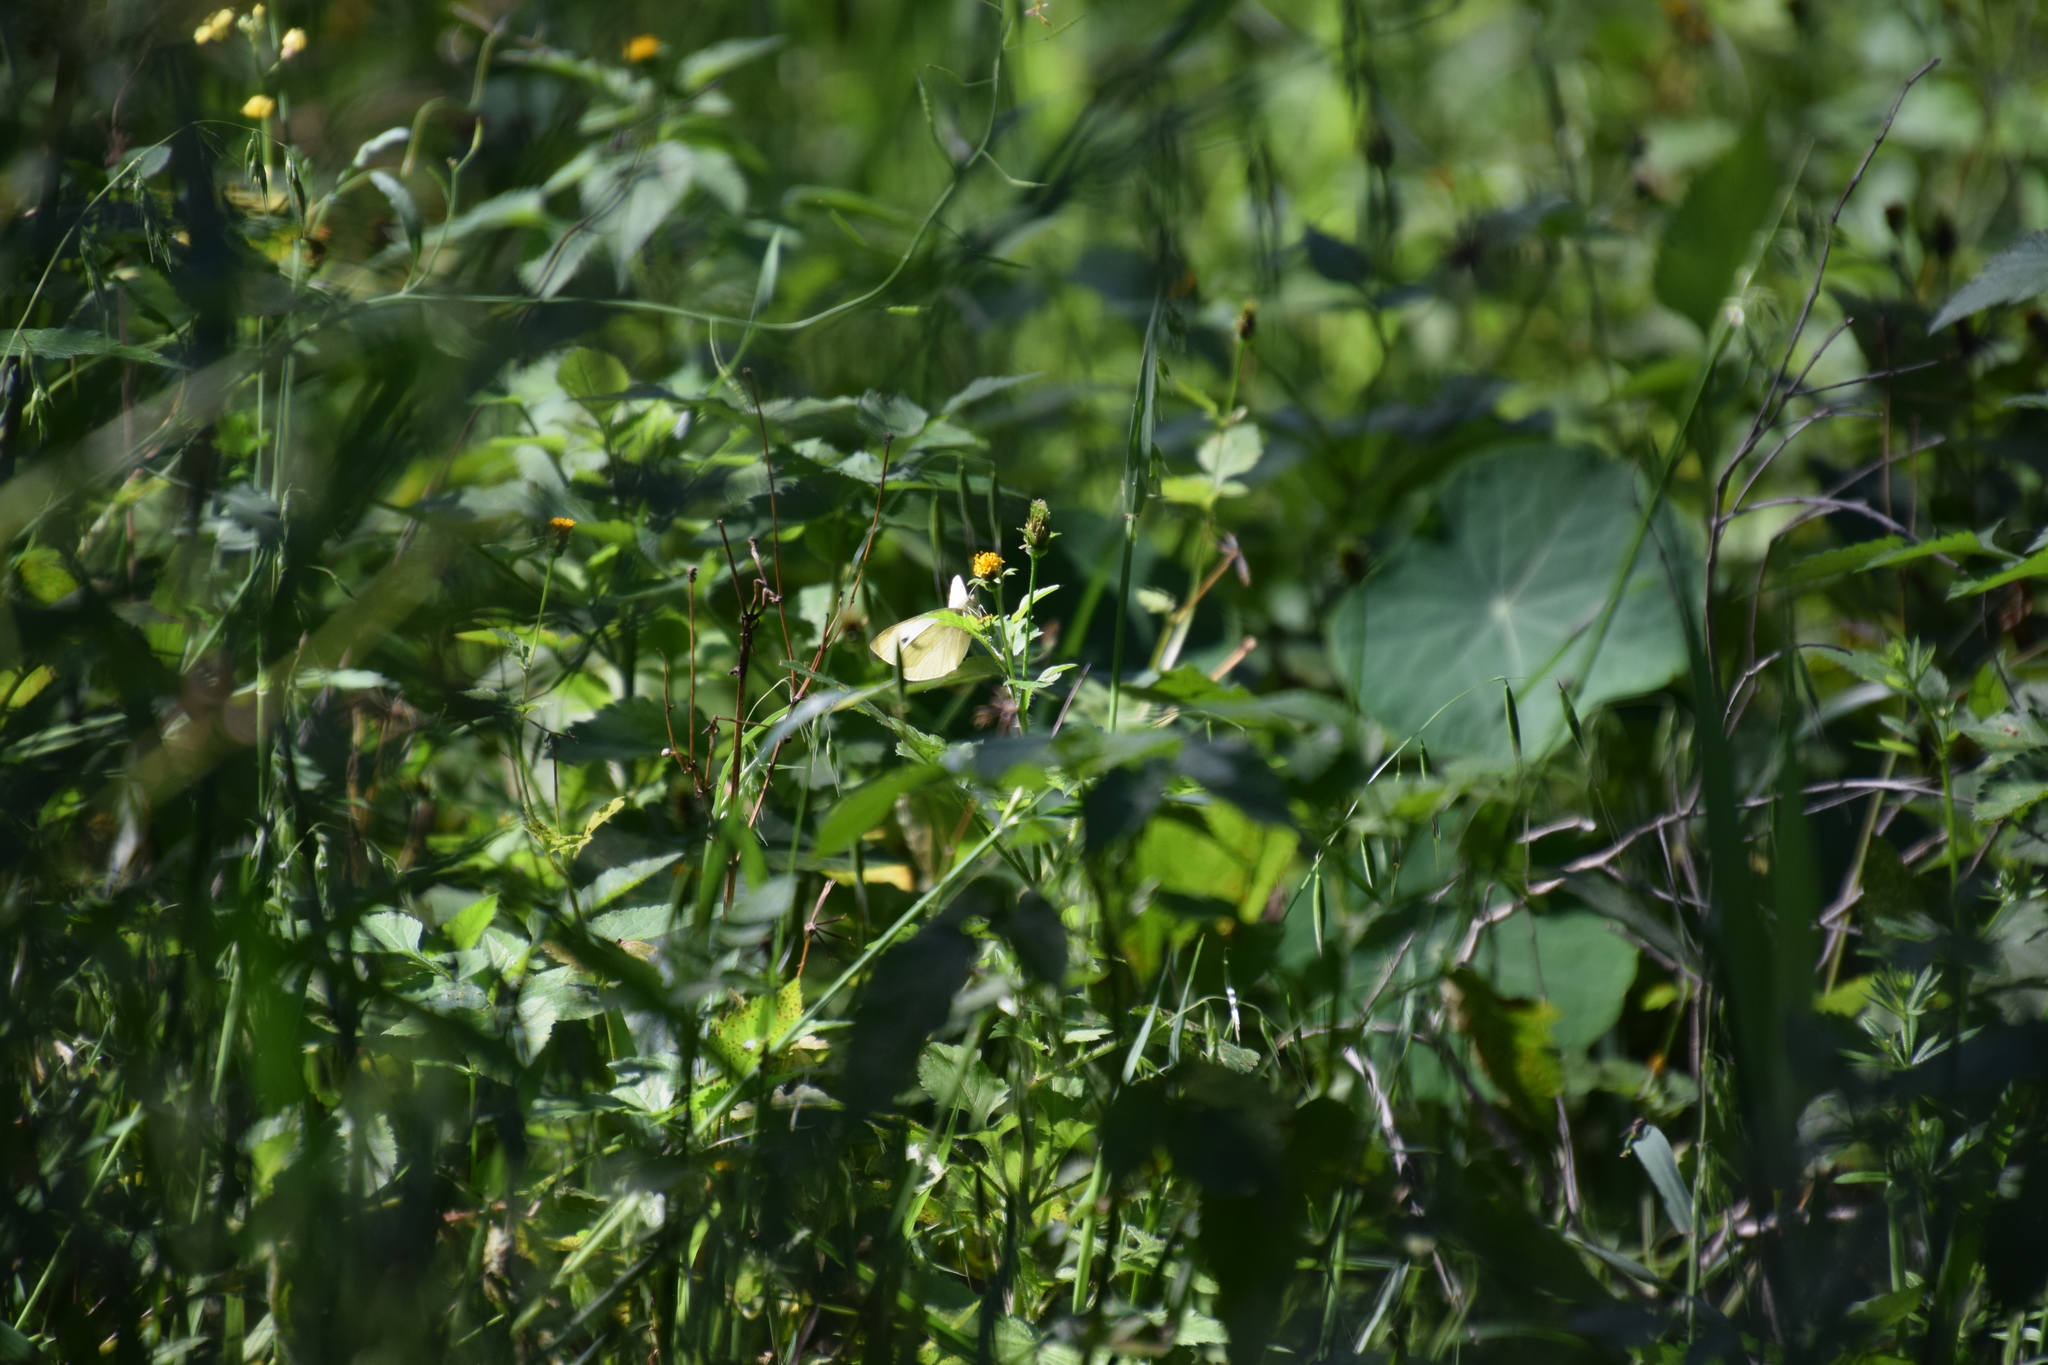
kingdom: Animalia
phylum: Arthropoda
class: Insecta
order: Lepidoptera
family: Pieridae
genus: Pieris
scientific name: Pieris rapae
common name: Small white
